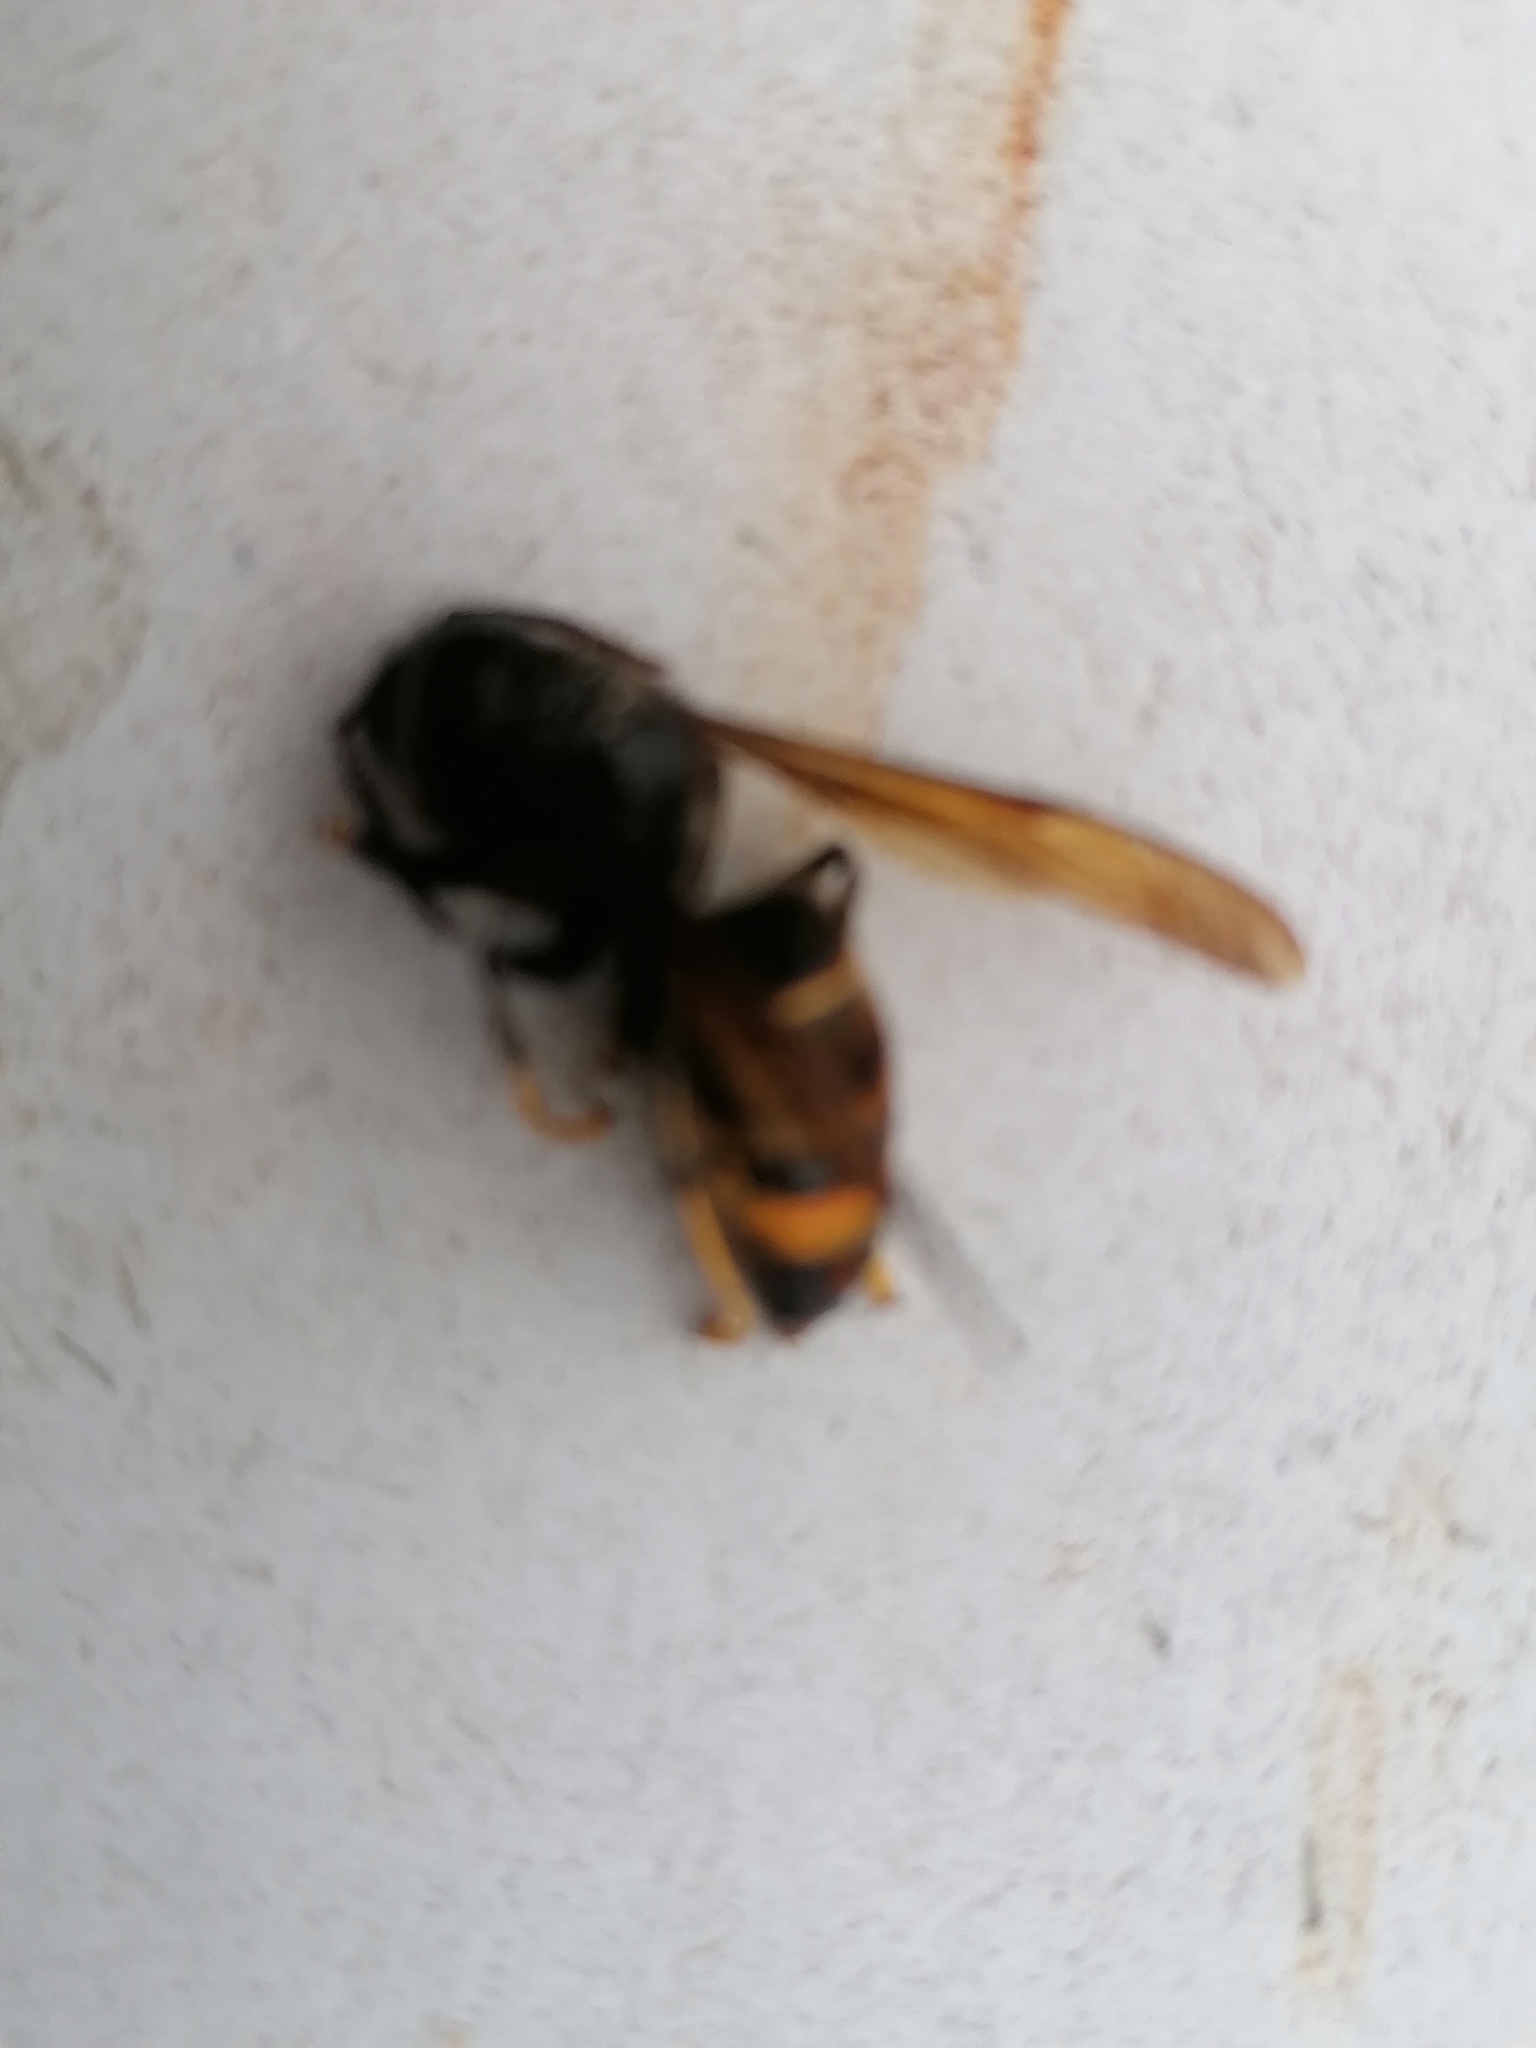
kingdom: Animalia
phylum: Arthropoda
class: Insecta
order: Hymenoptera
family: Vespidae
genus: Vespa
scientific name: Vespa velutina
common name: Asian hornet
